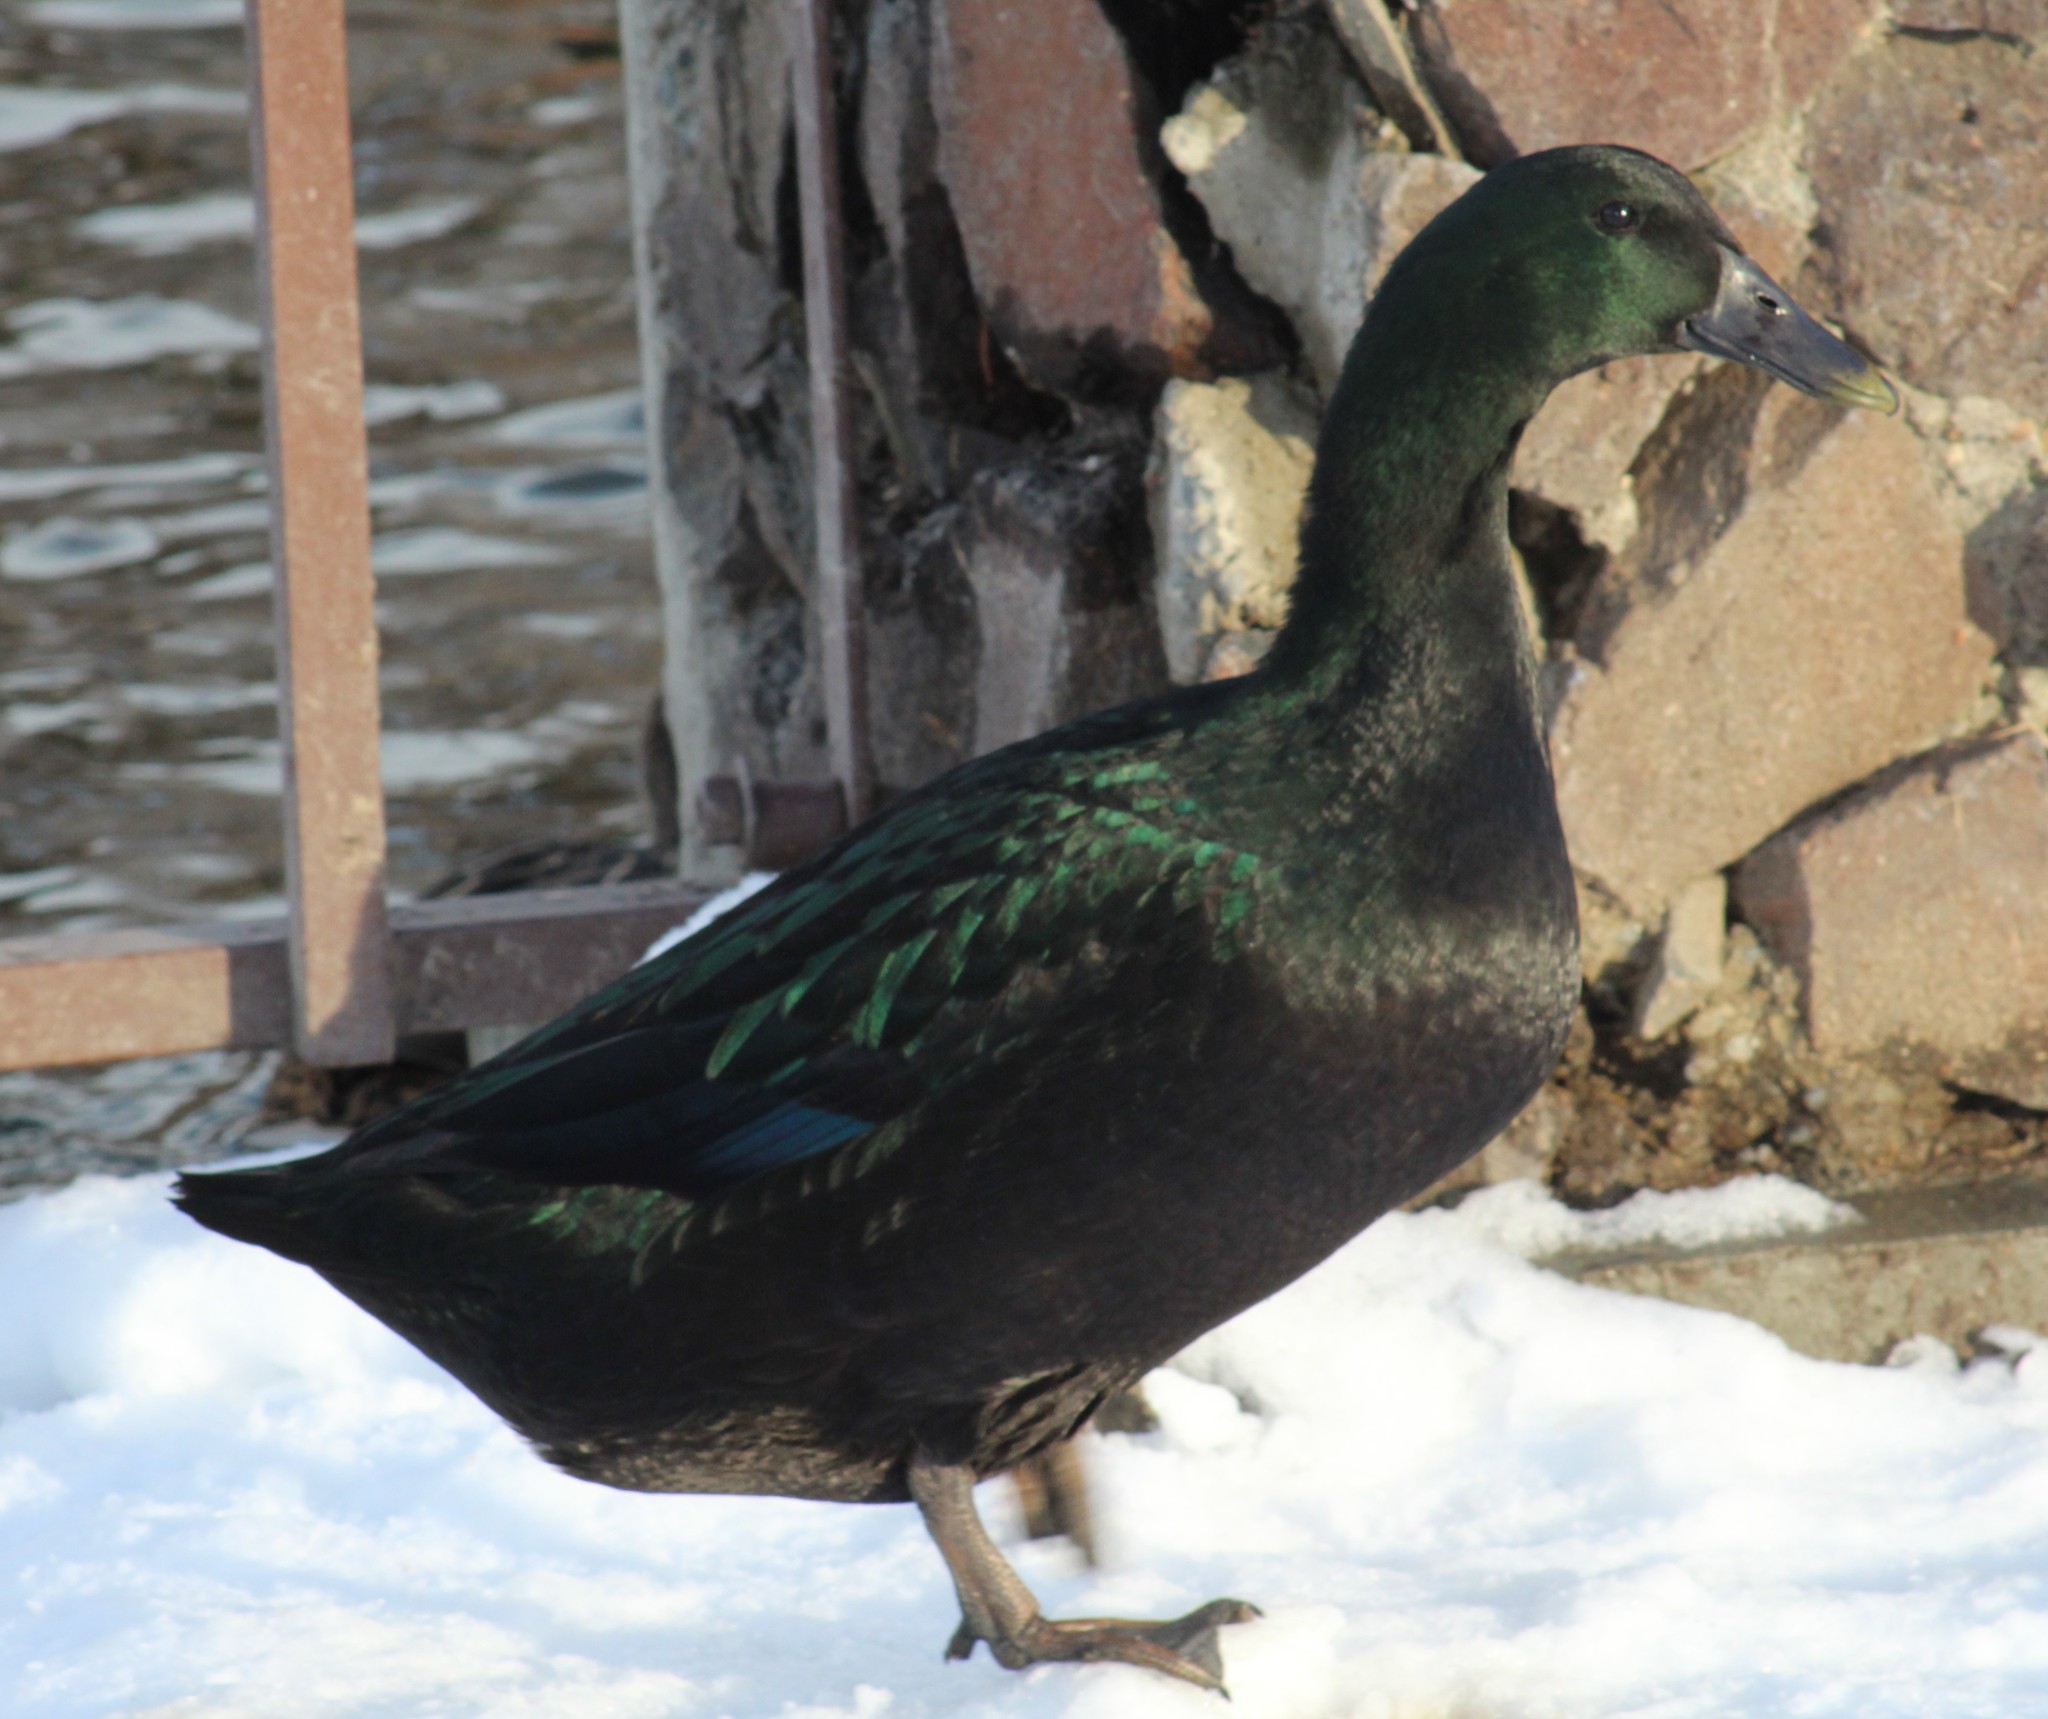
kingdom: Animalia
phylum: Chordata
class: Aves
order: Anseriformes
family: Anatidae
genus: Anas
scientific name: Anas platyrhynchos
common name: Mallard
